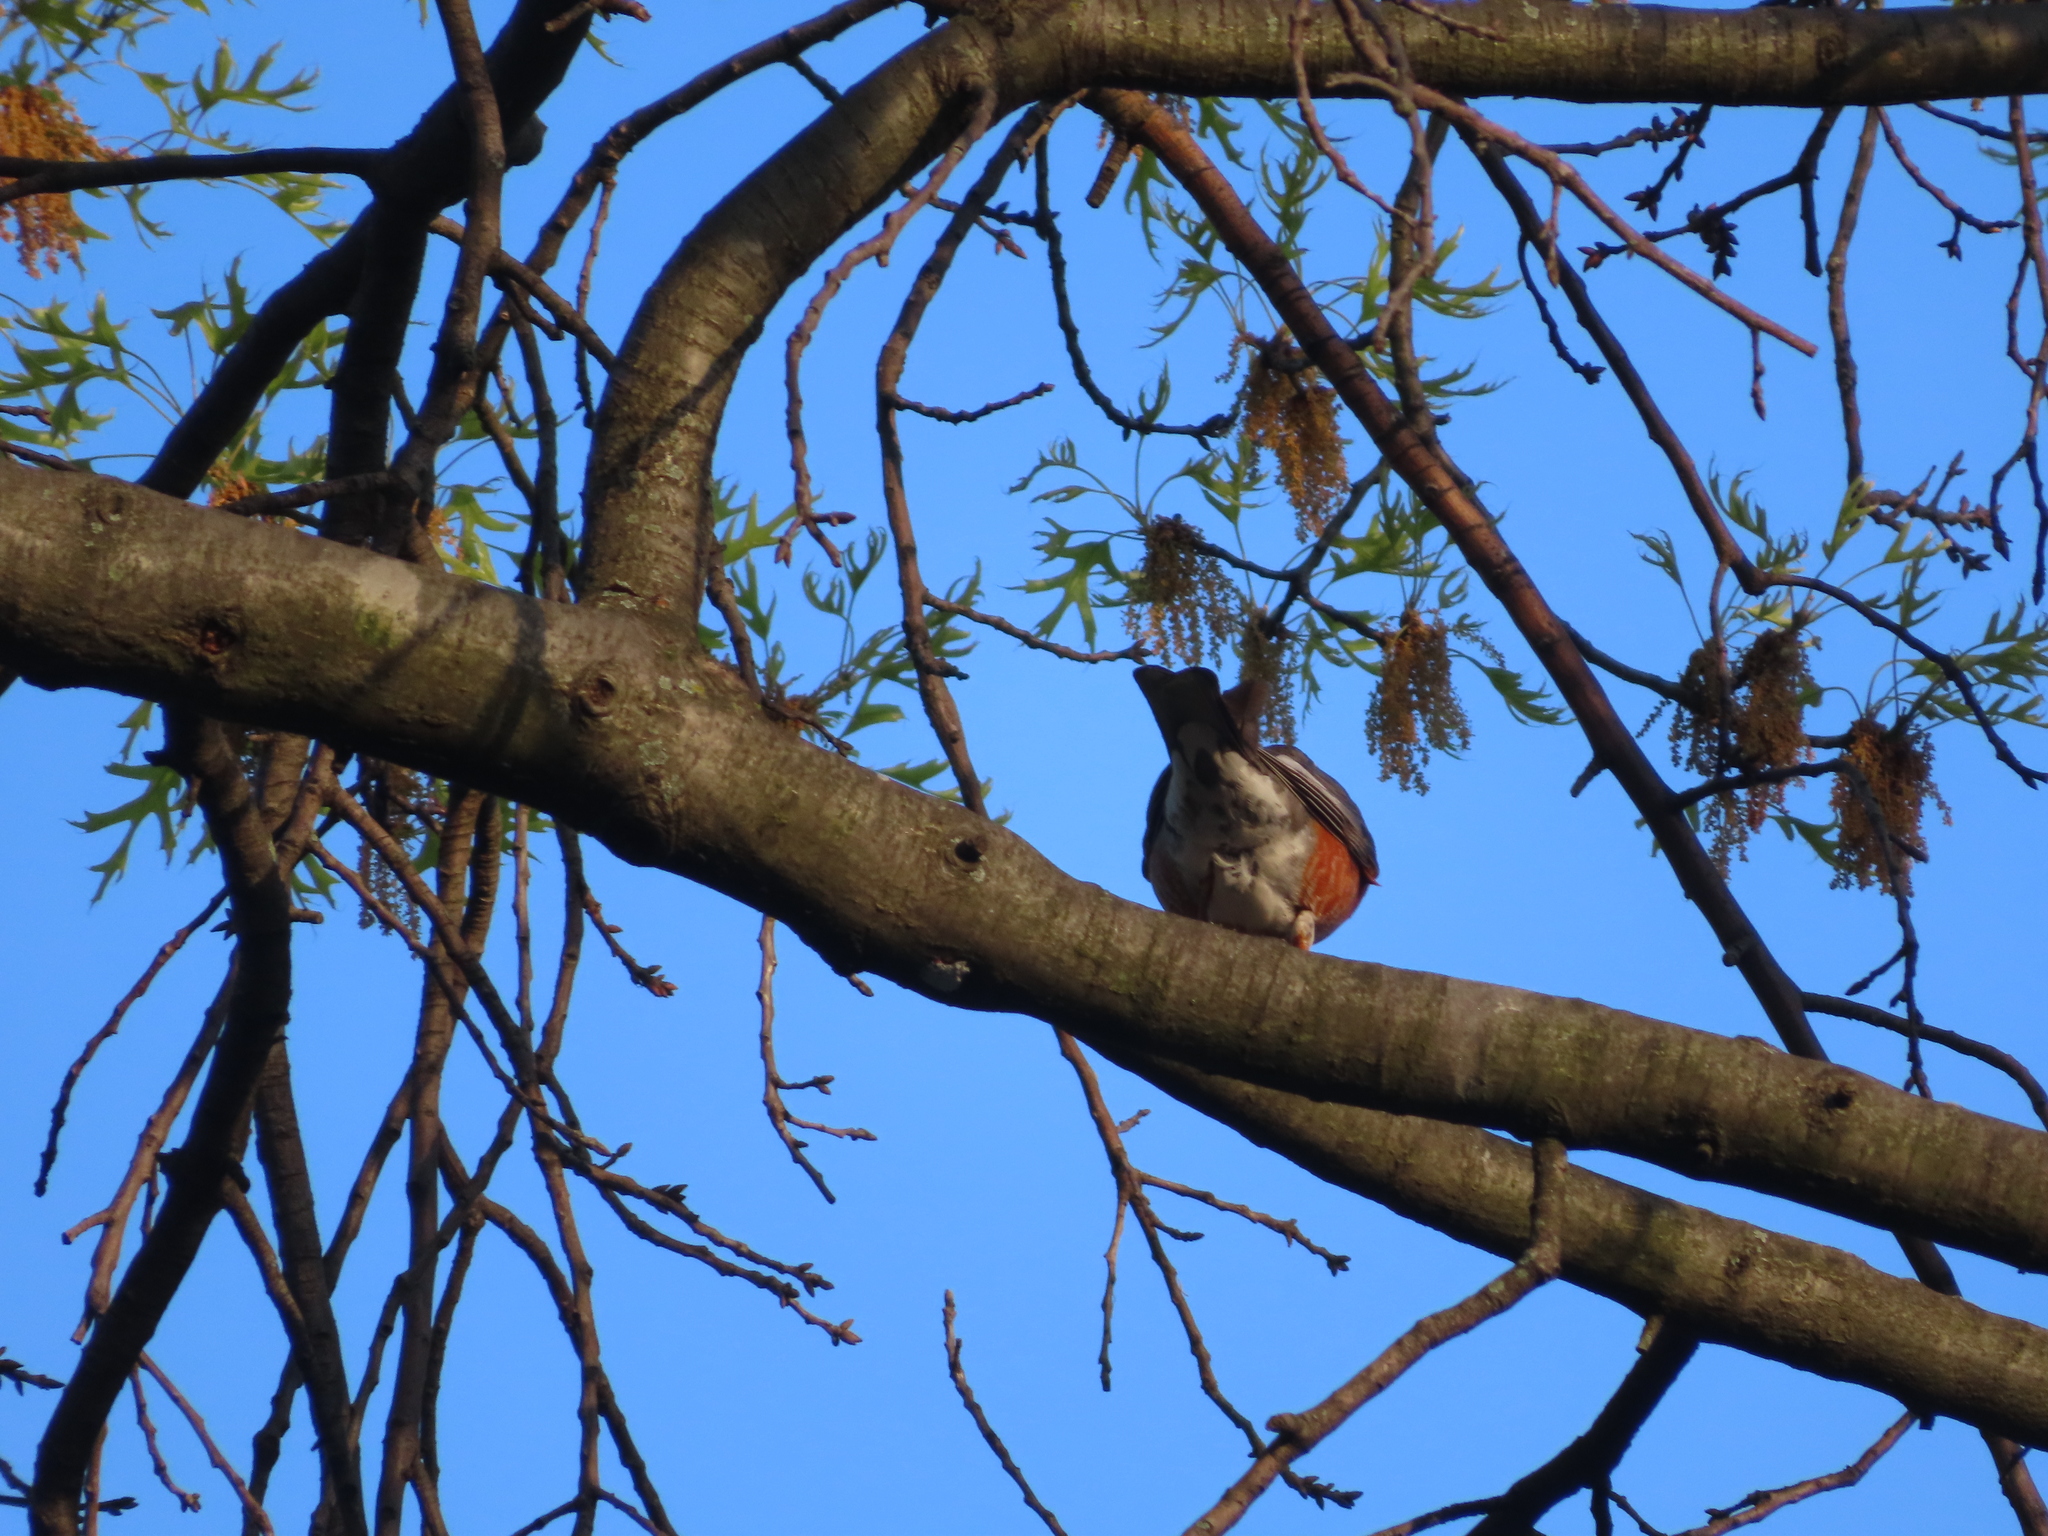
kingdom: Animalia
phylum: Chordata
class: Aves
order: Passeriformes
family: Turdidae
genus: Turdus
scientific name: Turdus migratorius
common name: American robin
